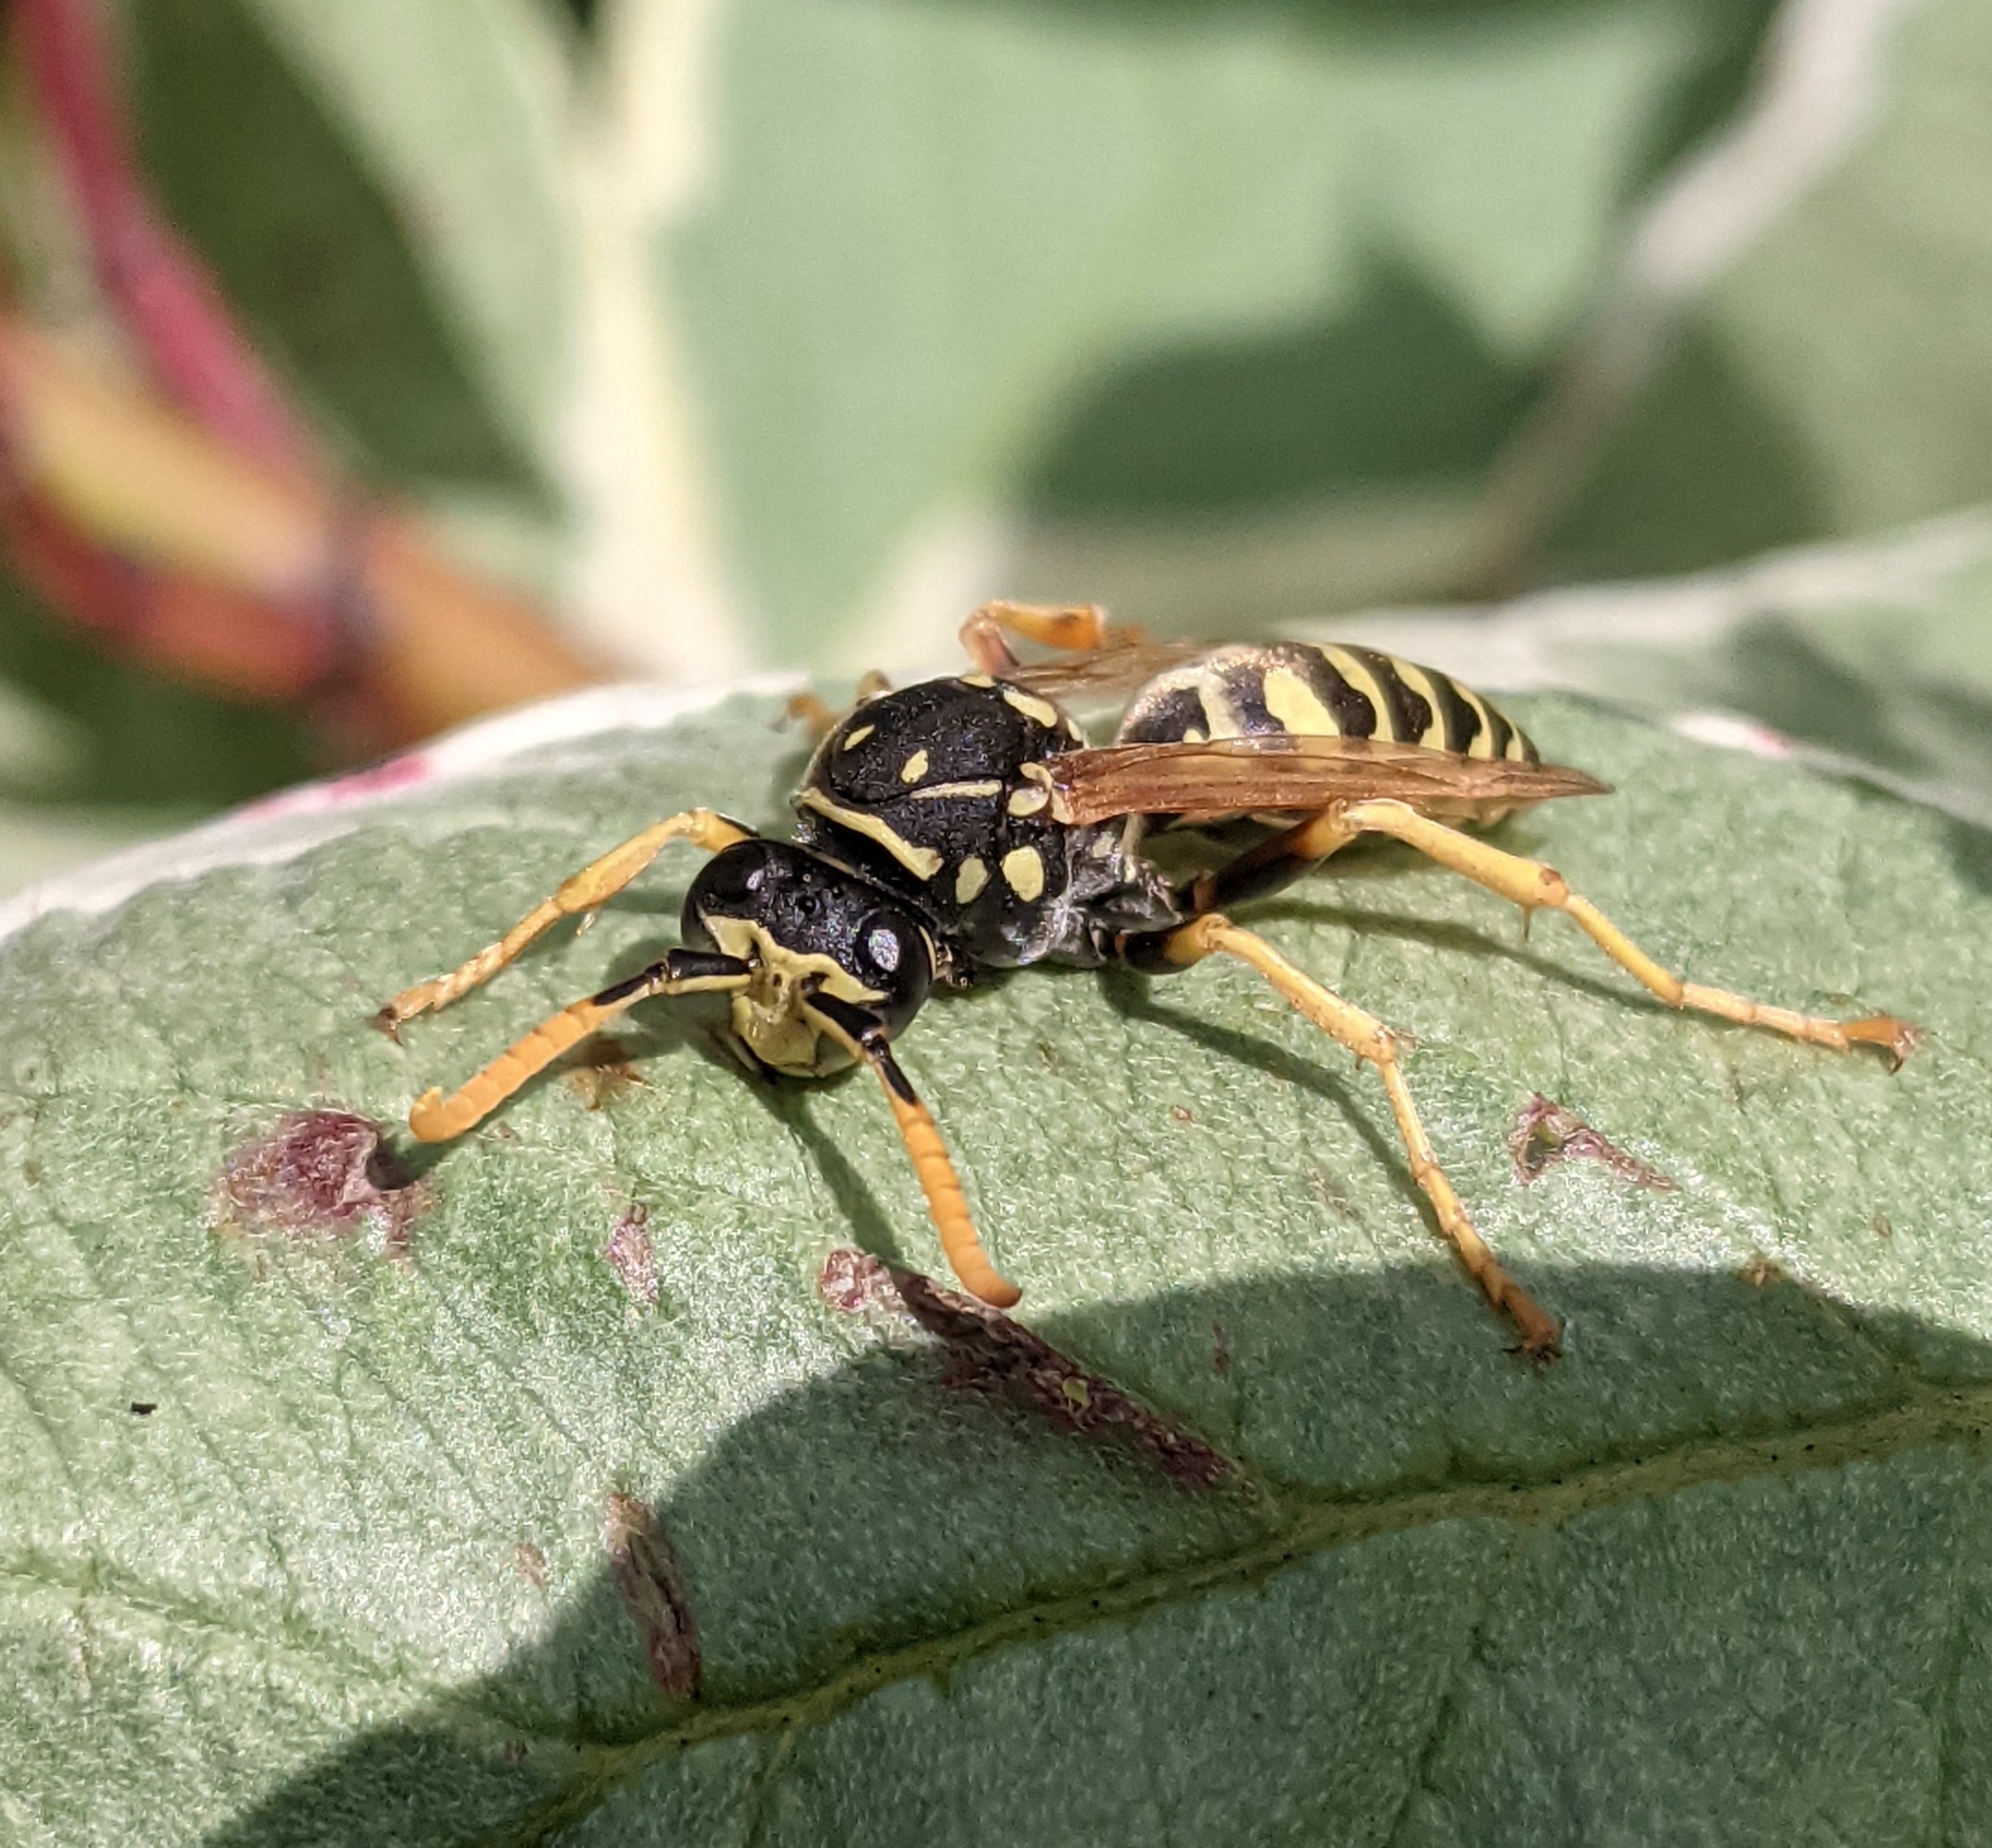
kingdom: Animalia
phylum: Arthropoda
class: Insecta
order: Hymenoptera
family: Eumenidae
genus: Polistes
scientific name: Polistes dominula
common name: Paper wasp
